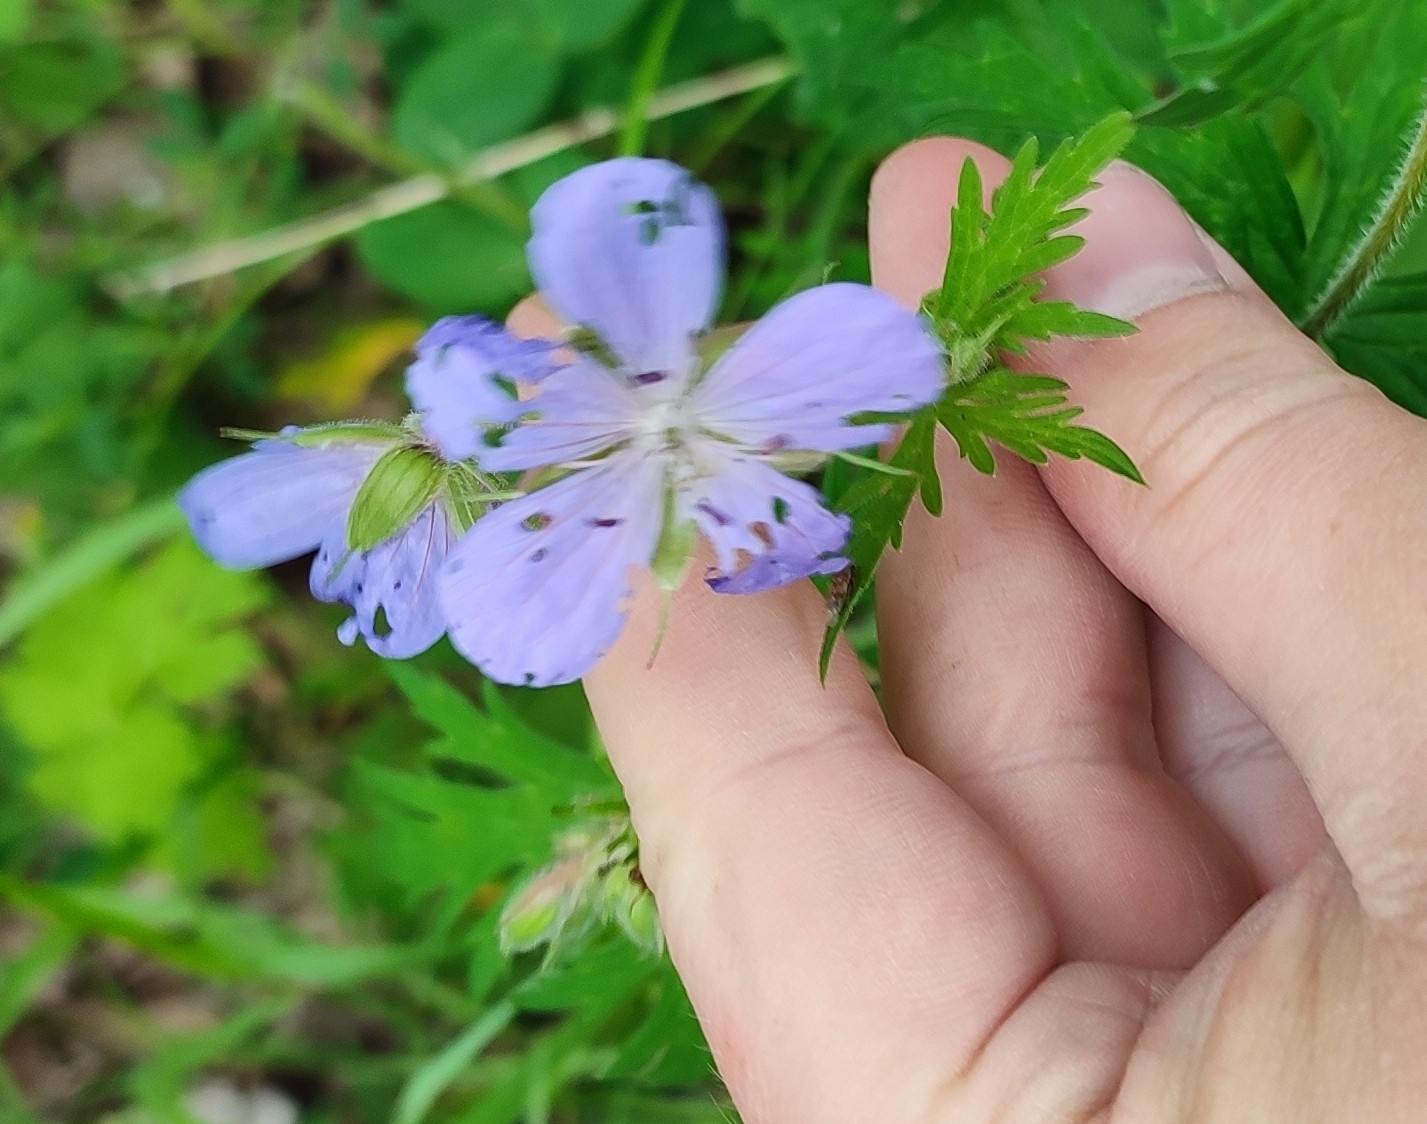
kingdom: Plantae
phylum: Tracheophyta
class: Magnoliopsida
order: Geraniales
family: Geraniaceae
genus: Geranium
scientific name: Geranium pratense
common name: Meadow crane's-bill
